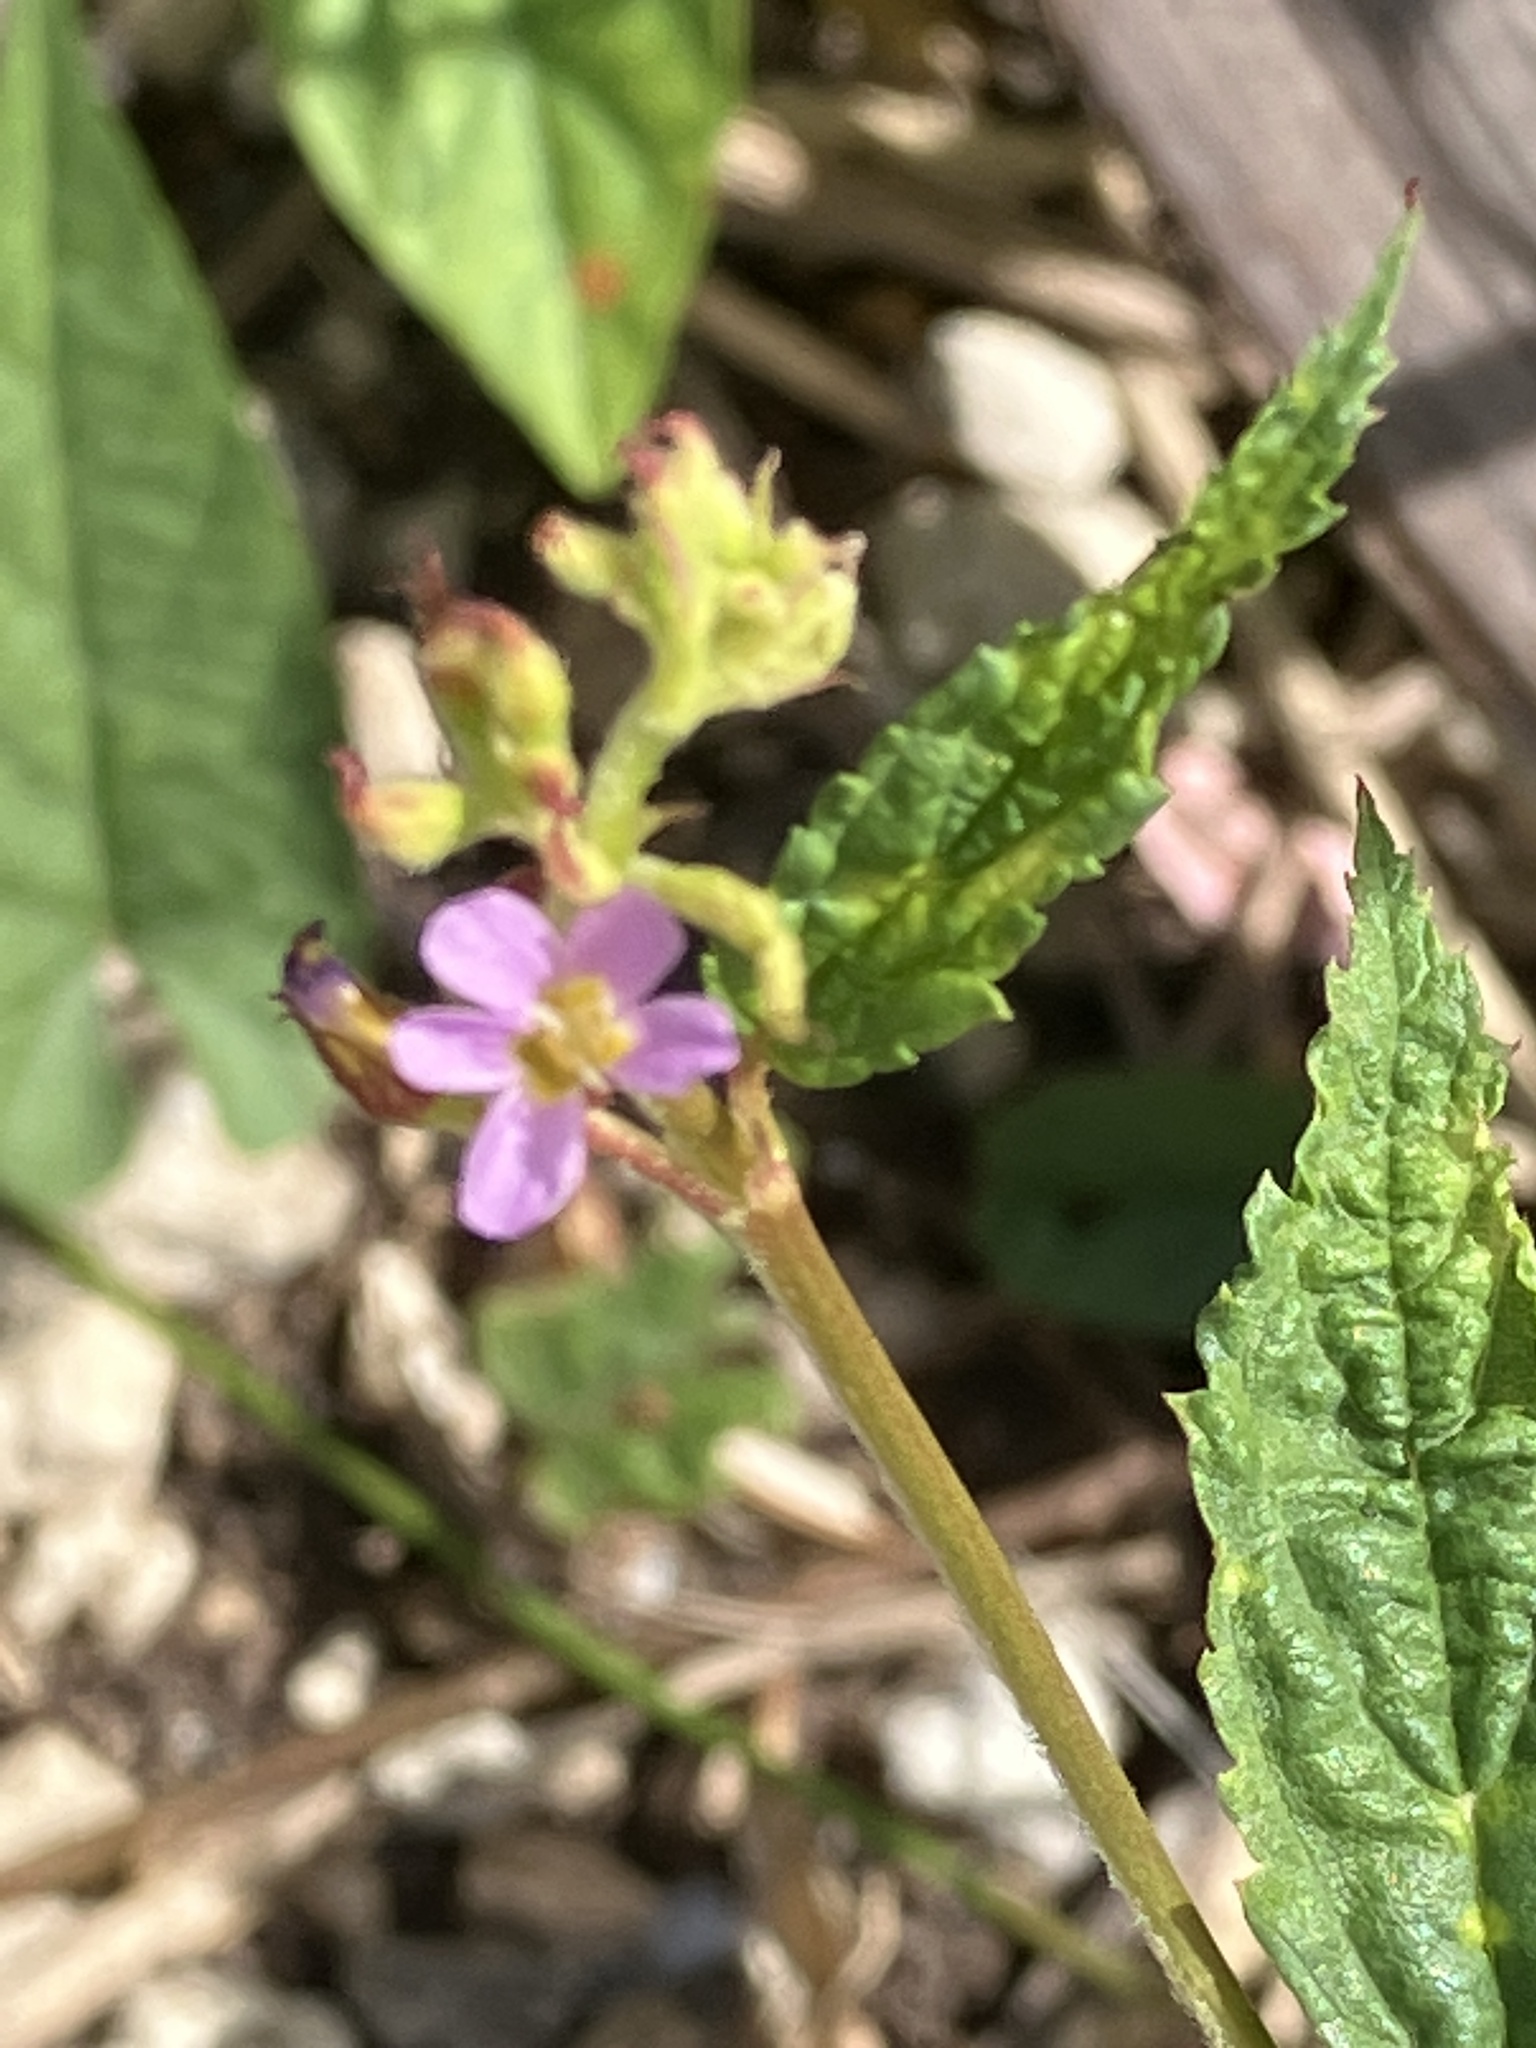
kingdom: Plantae
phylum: Tracheophyta
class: Magnoliopsida
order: Malvales
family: Malvaceae
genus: Melochia
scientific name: Melochia pyramidata
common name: Pyramidflower
